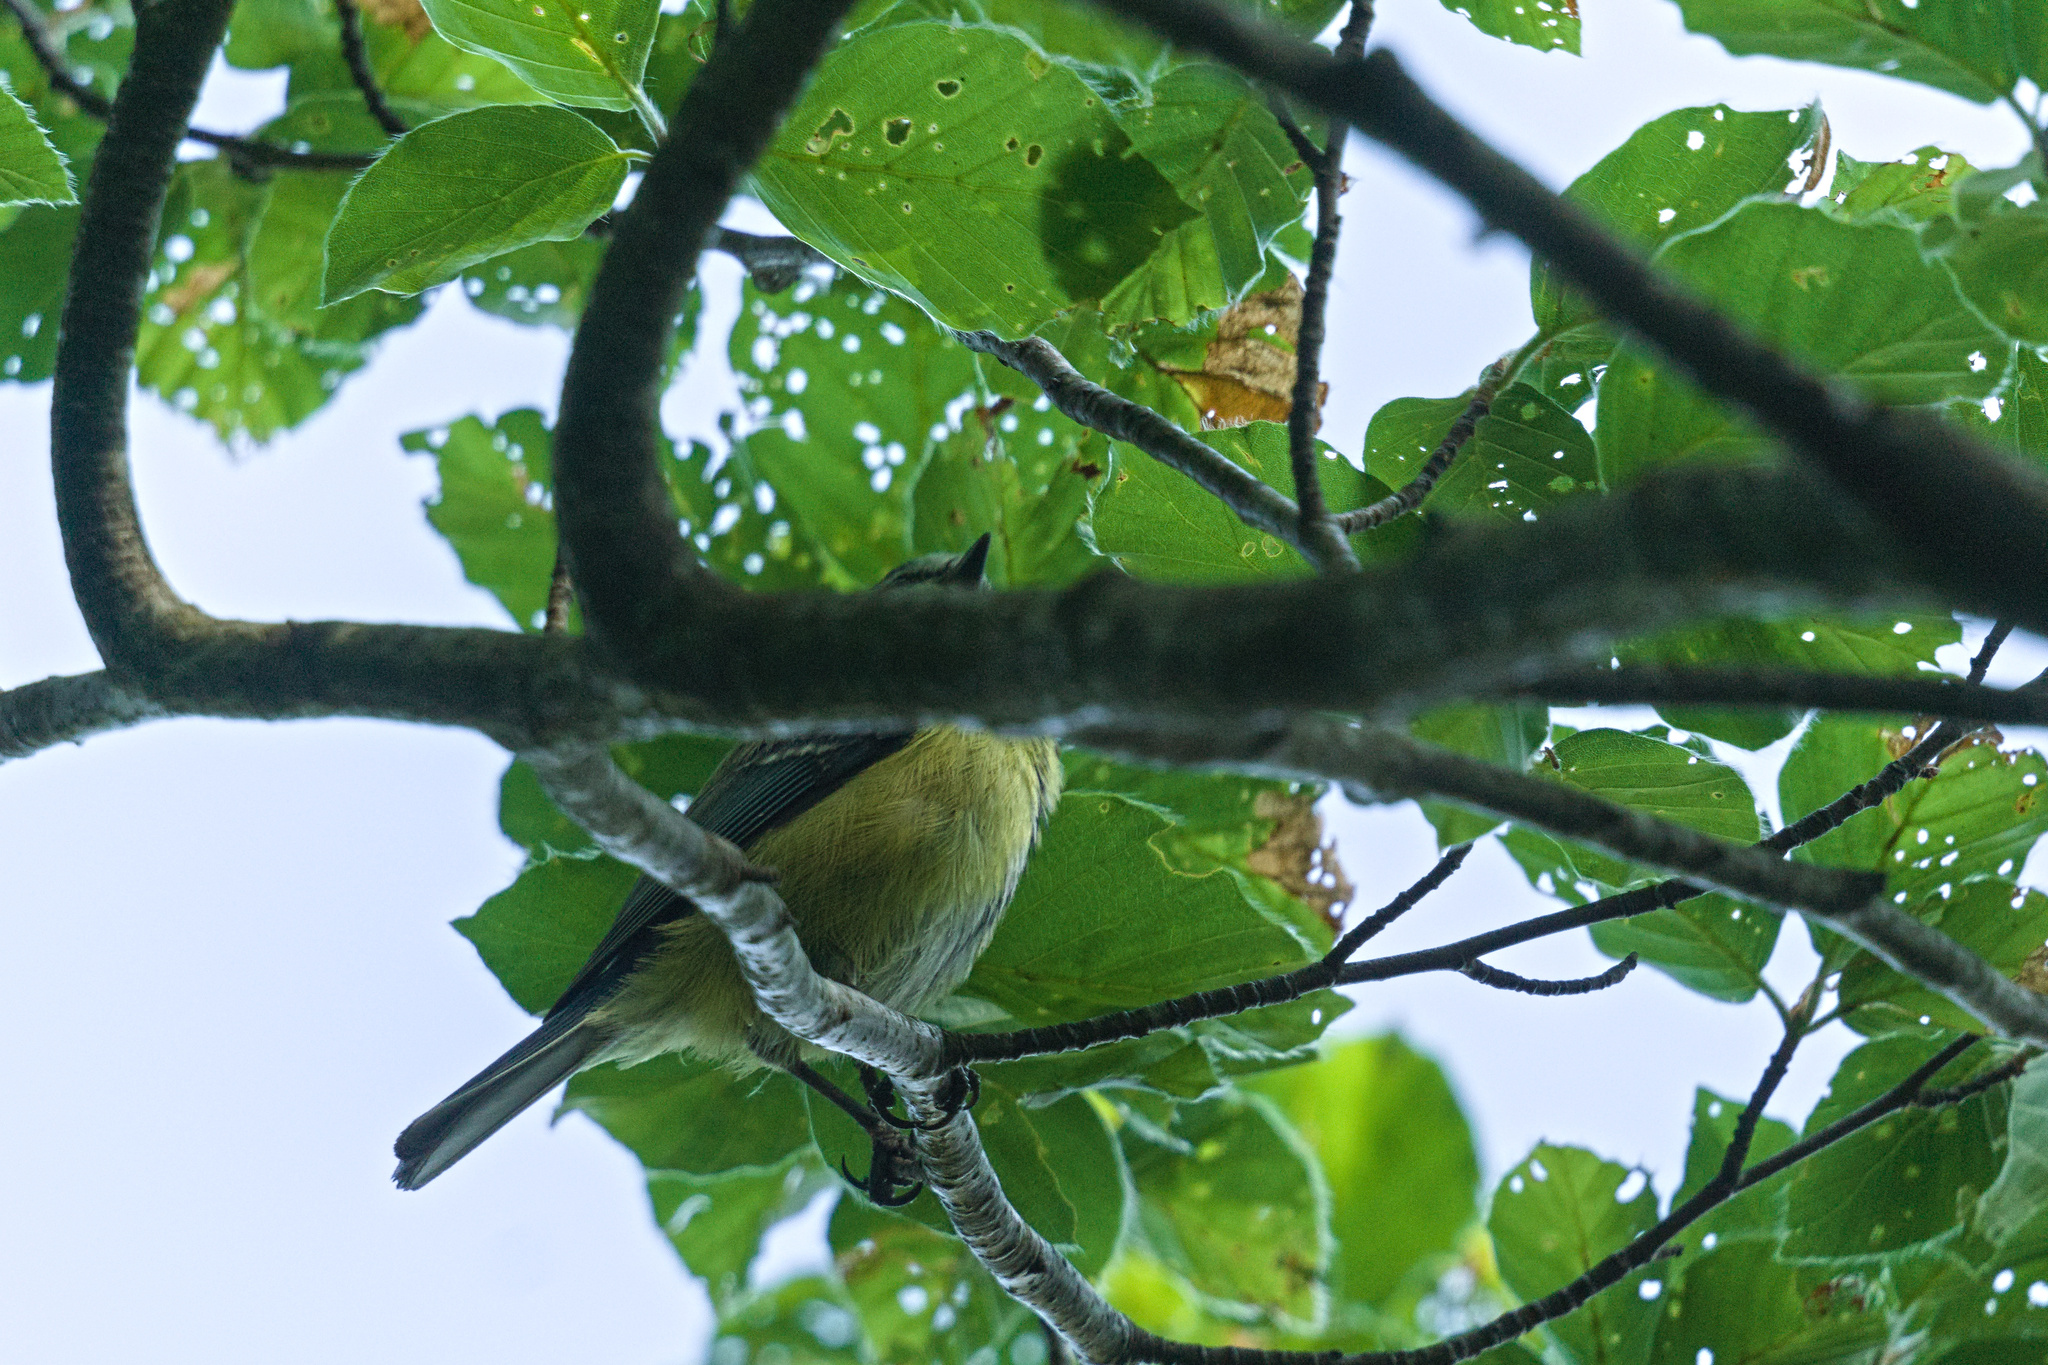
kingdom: Animalia
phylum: Chordata
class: Aves
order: Passeriformes
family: Paridae
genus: Cyanistes
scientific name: Cyanistes caeruleus
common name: Eurasian blue tit
